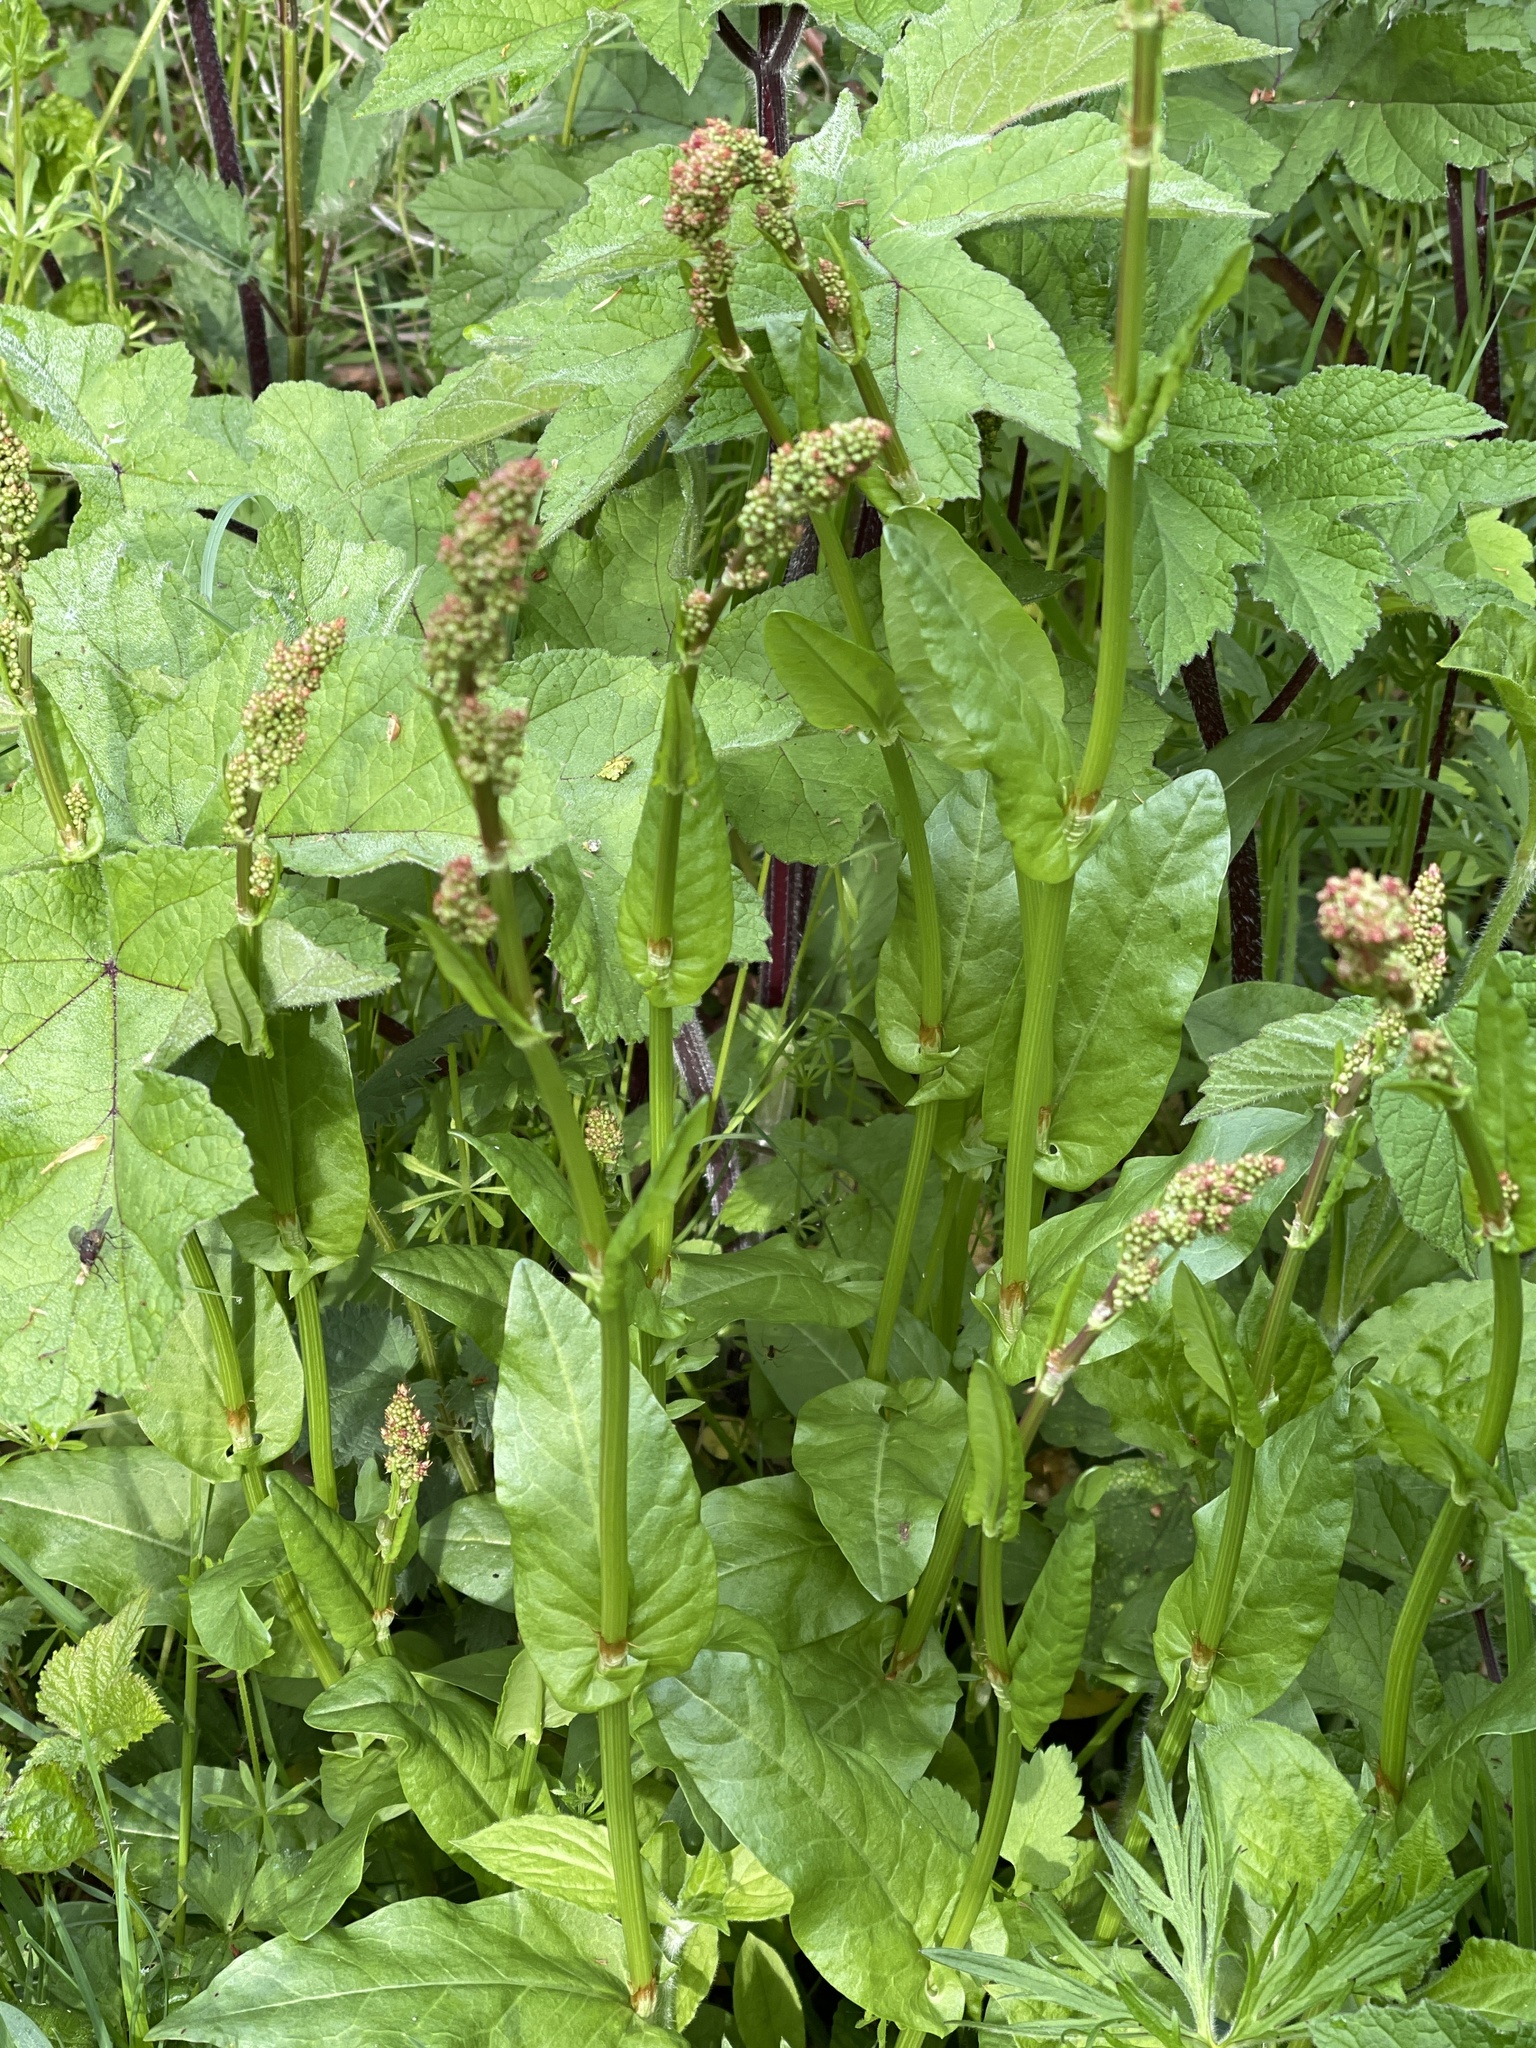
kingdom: Plantae
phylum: Tracheophyta
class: Magnoliopsida
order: Caryophyllales
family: Polygonaceae
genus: Rumex
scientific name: Rumex acetosa
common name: Garden sorrel
